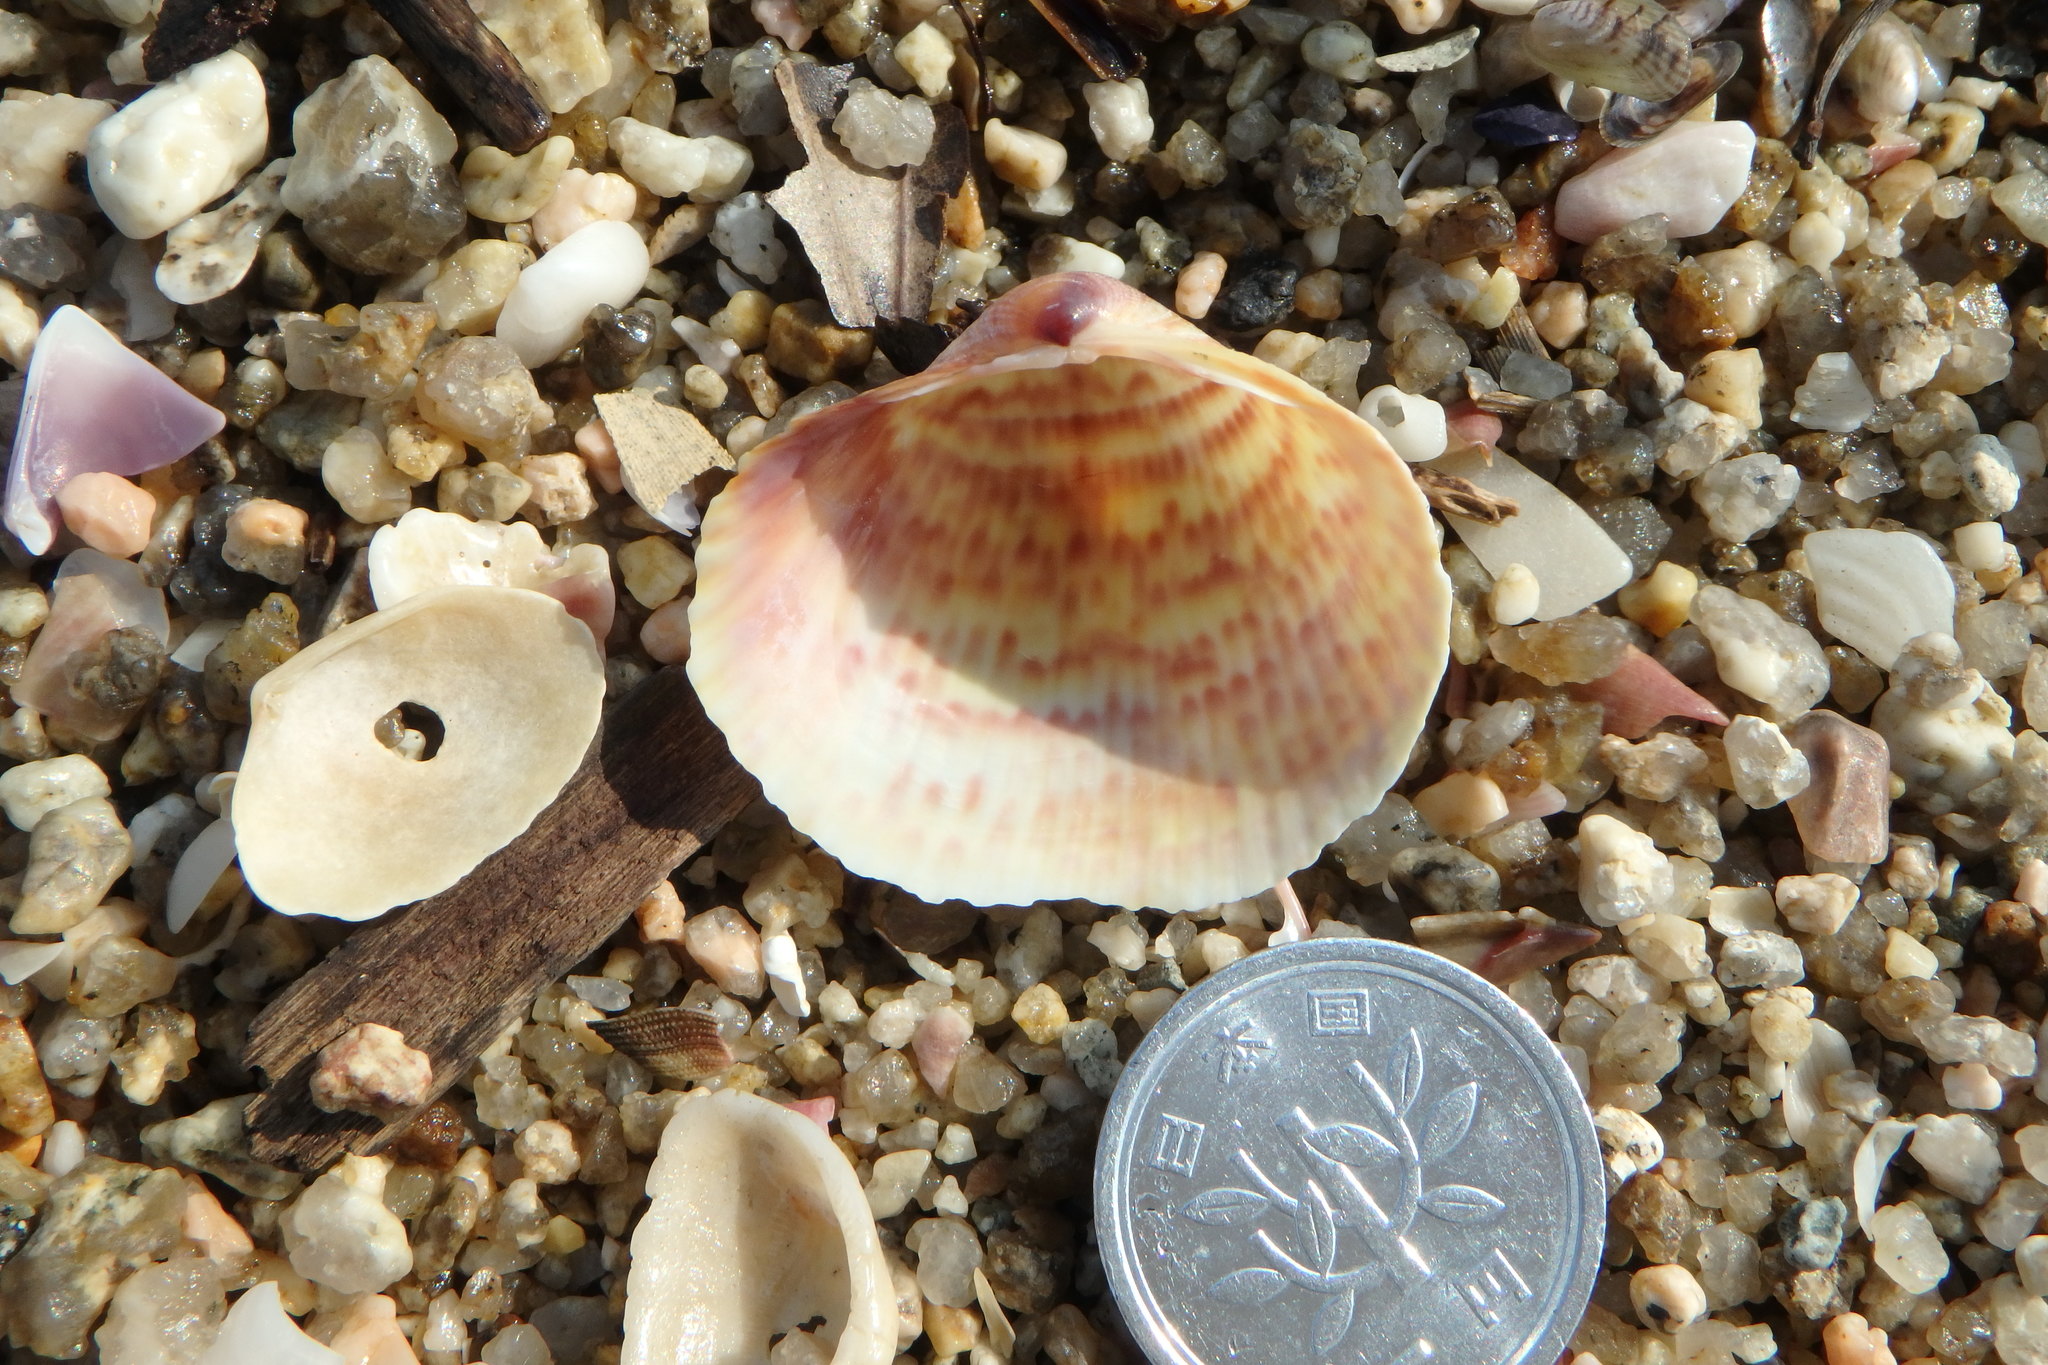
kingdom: Animalia
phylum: Mollusca
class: Bivalvia
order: Cardiida
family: Cardiidae
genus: Fulvia
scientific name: Fulvia undatopicta
